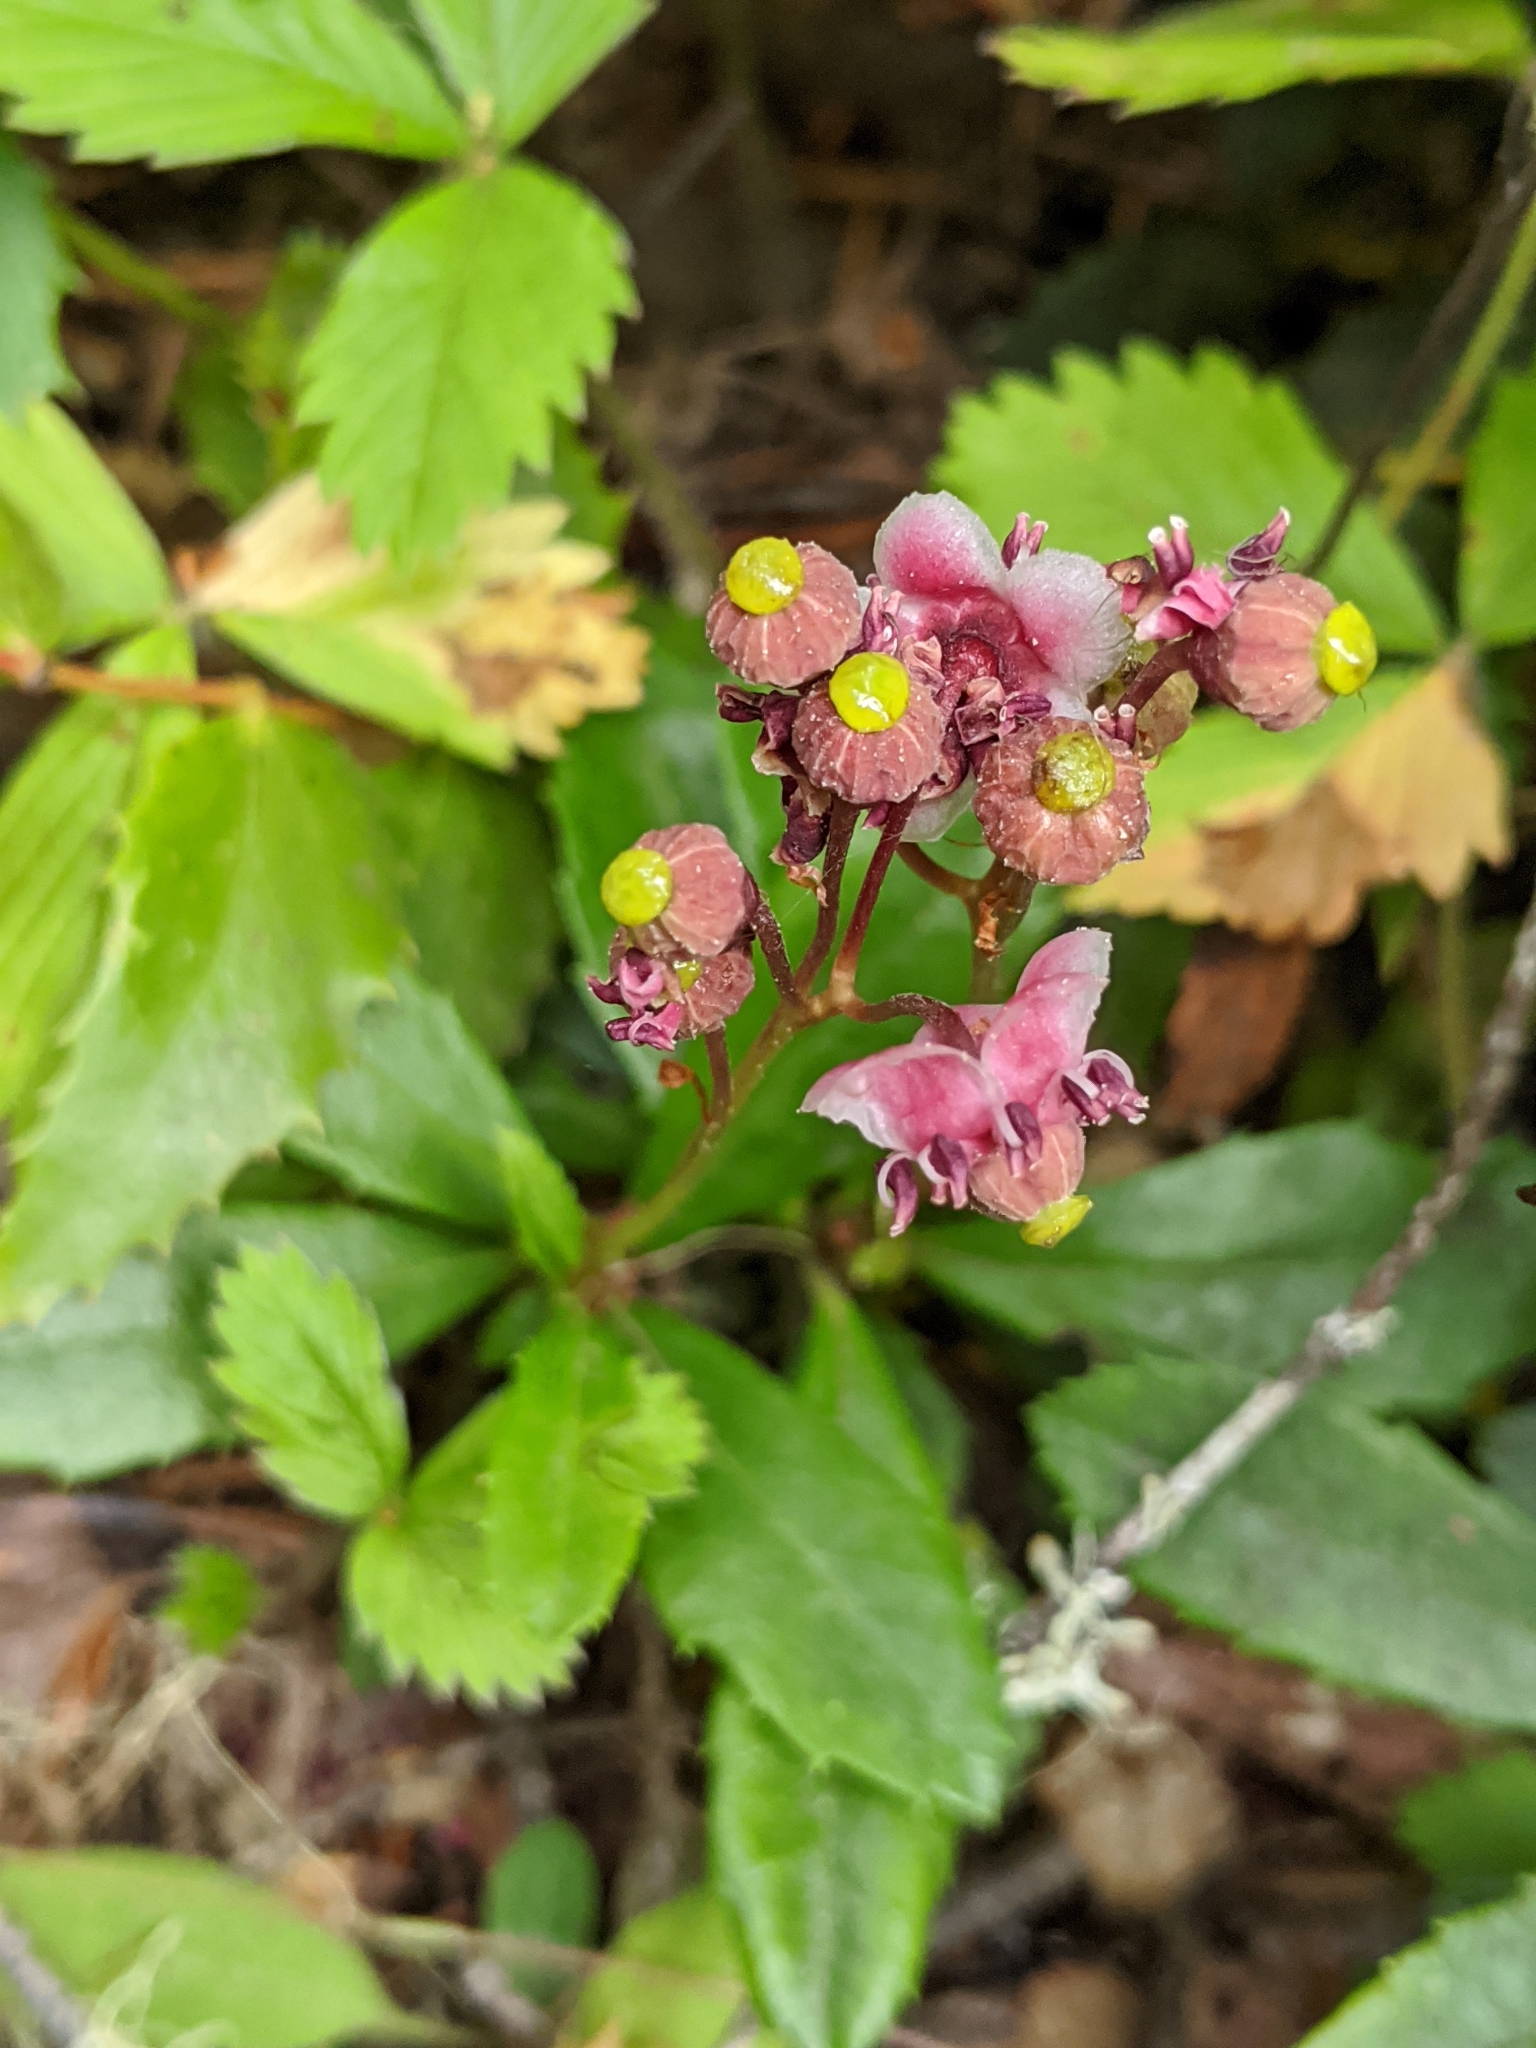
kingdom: Plantae
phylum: Tracheophyta
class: Magnoliopsida
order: Ericales
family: Ericaceae
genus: Chimaphila
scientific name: Chimaphila umbellata
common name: Pipsissewa
